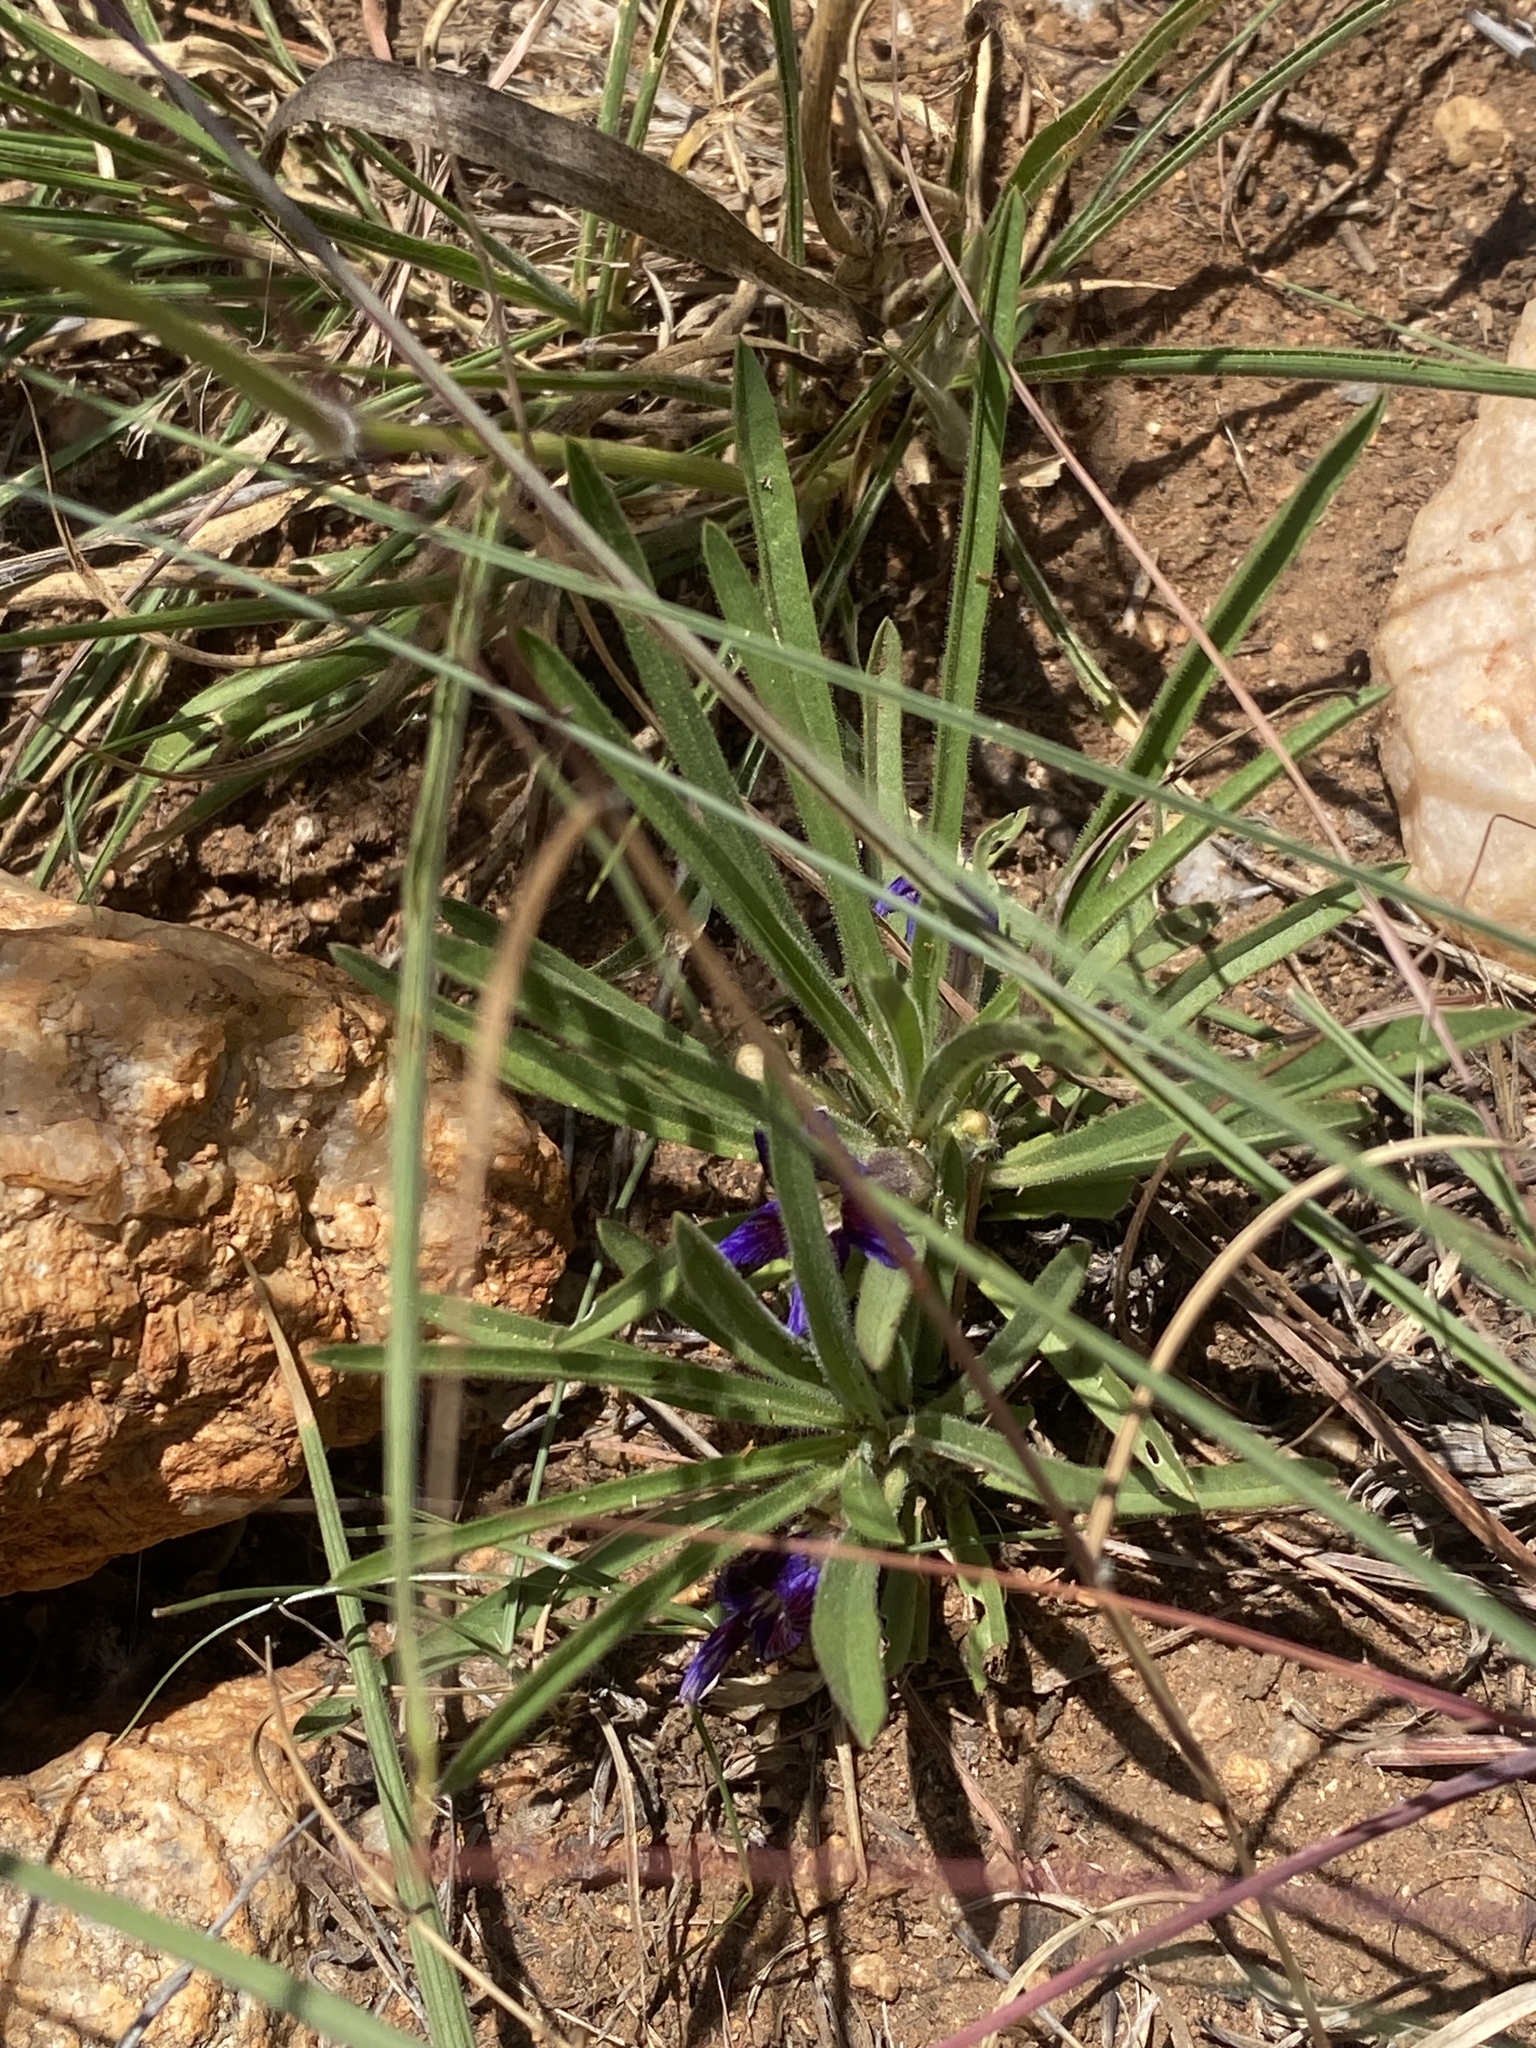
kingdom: Plantae
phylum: Tracheophyta
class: Magnoliopsida
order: Lamiales
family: Scrophulariaceae
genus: Aptosimum
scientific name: Aptosimum lineare
